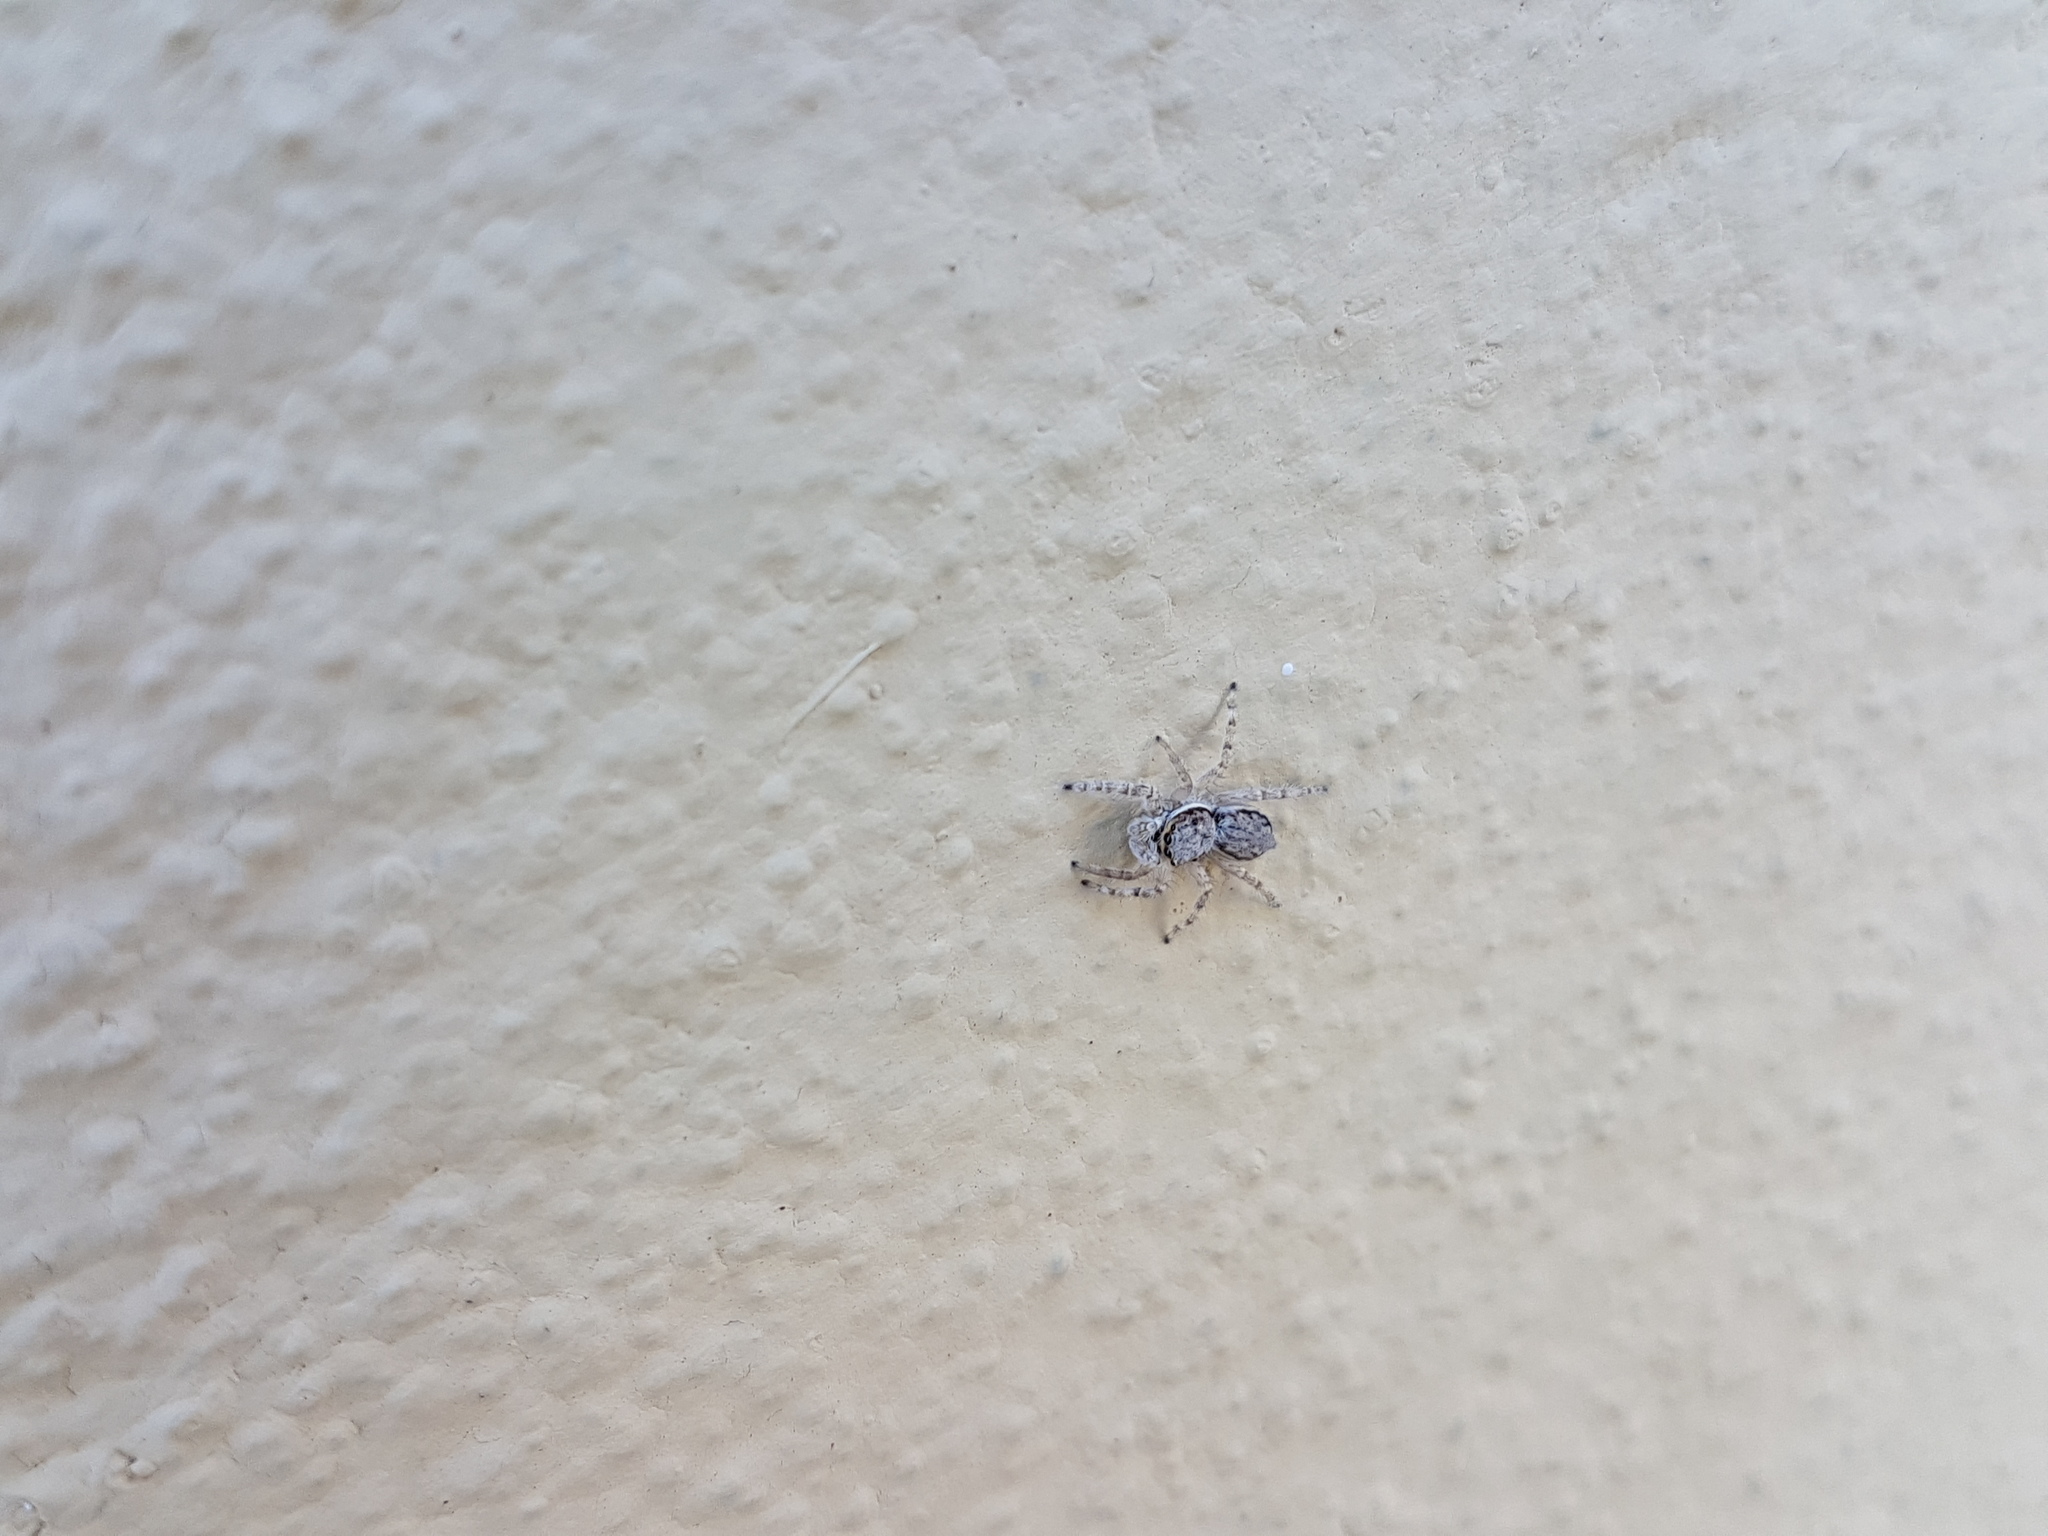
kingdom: Animalia
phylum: Arthropoda
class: Arachnida
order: Araneae
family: Salticidae
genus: Menemerus
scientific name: Menemerus bivittatus
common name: Gray wall jumper
